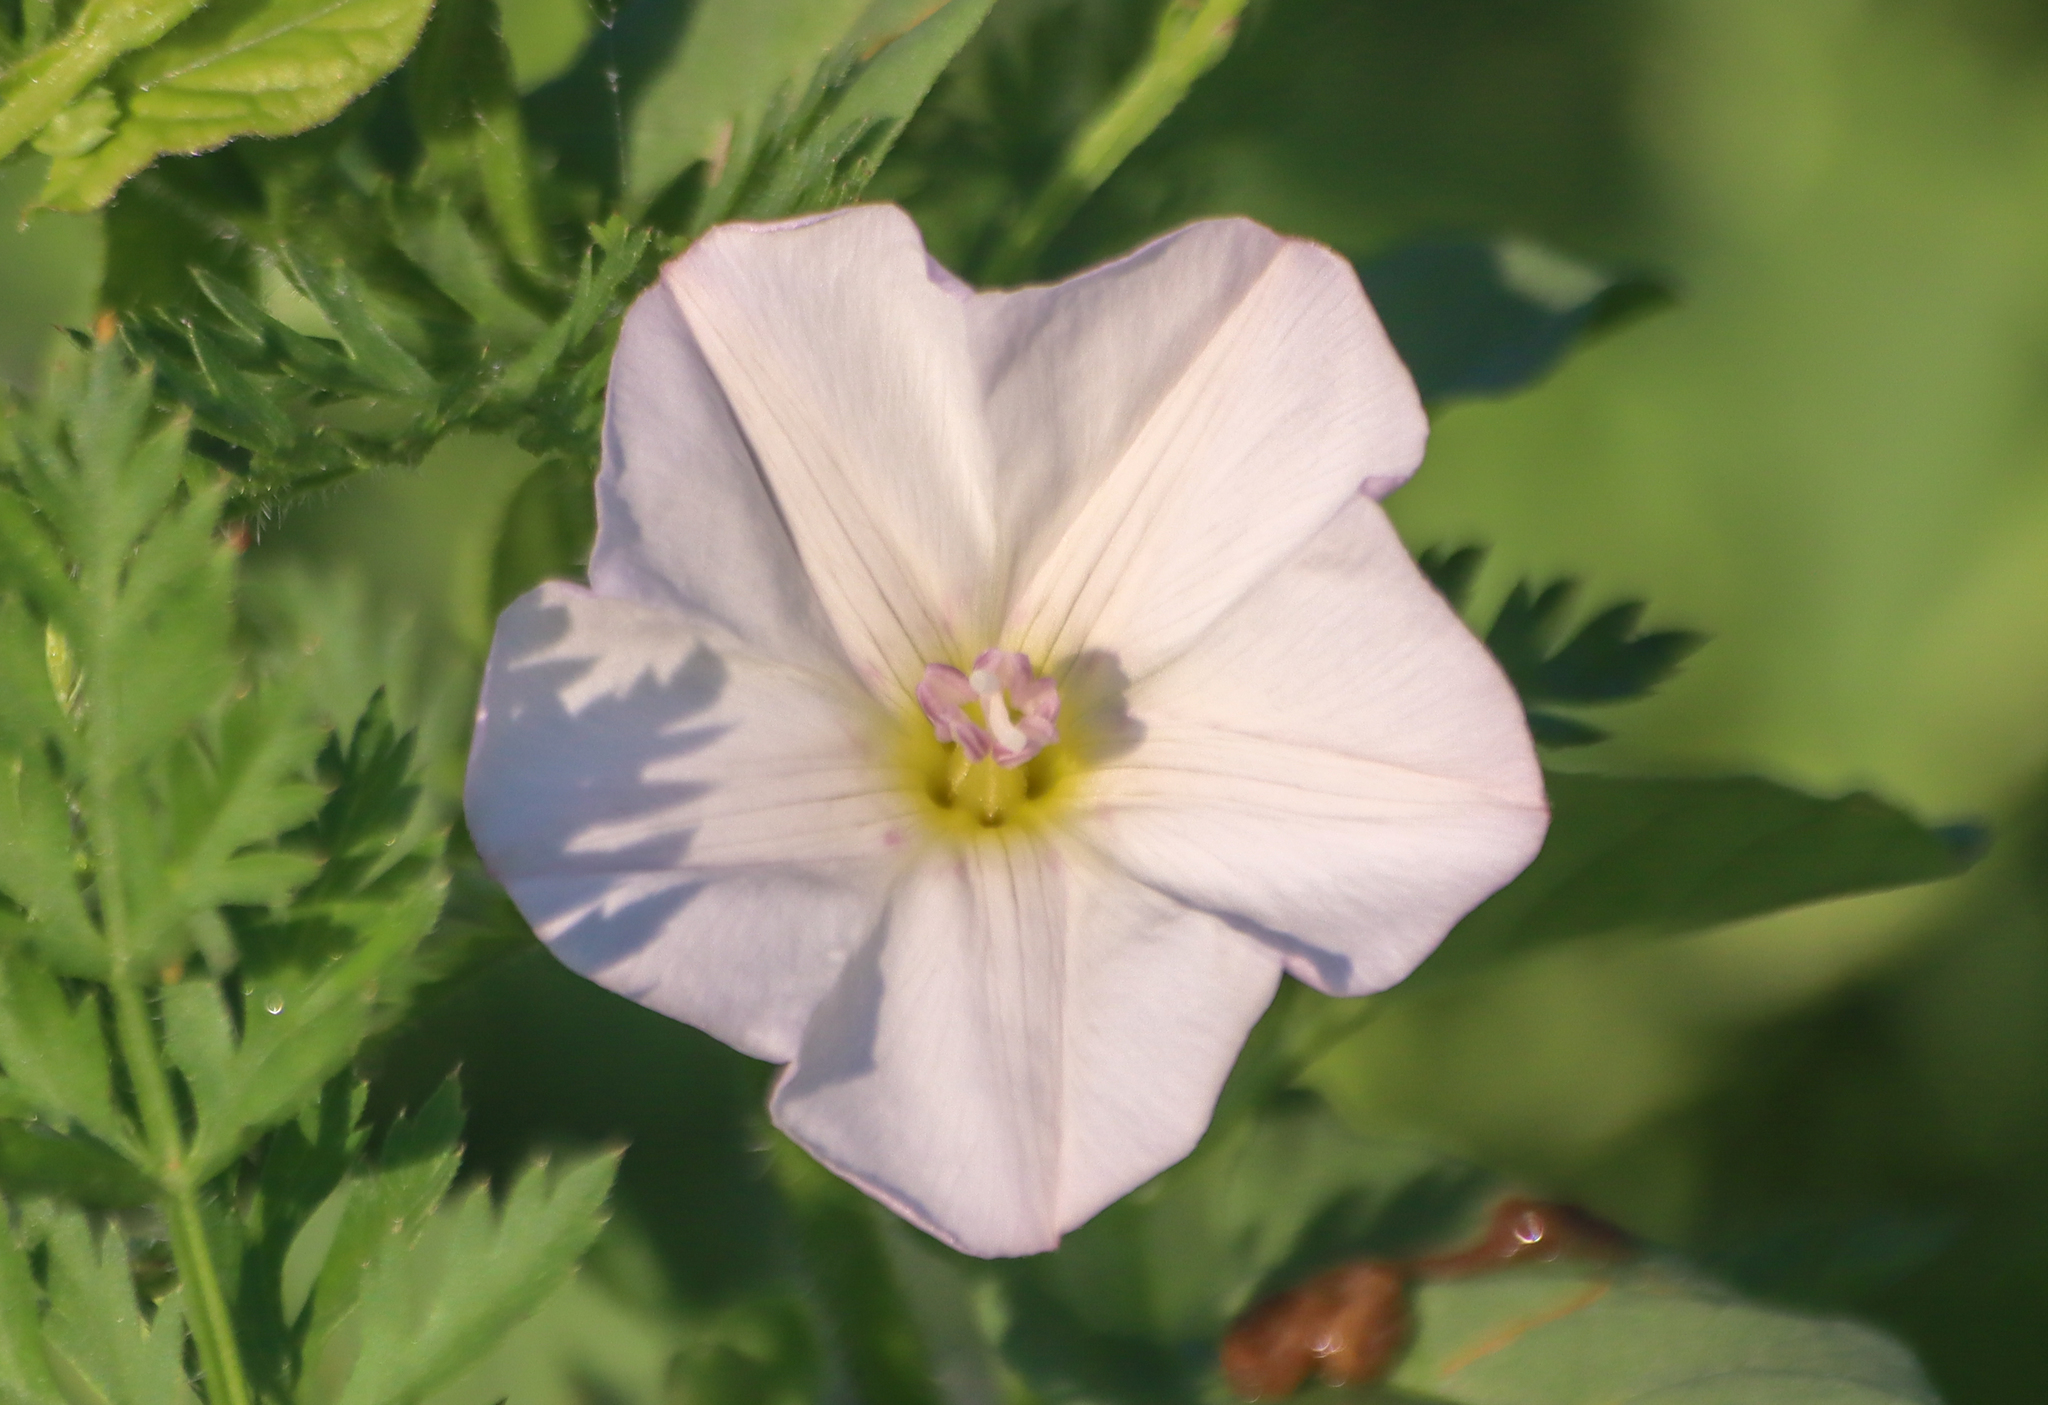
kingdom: Plantae
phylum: Tracheophyta
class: Magnoliopsida
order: Solanales
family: Convolvulaceae
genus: Convolvulus
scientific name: Convolvulus arvensis
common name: Field bindweed
